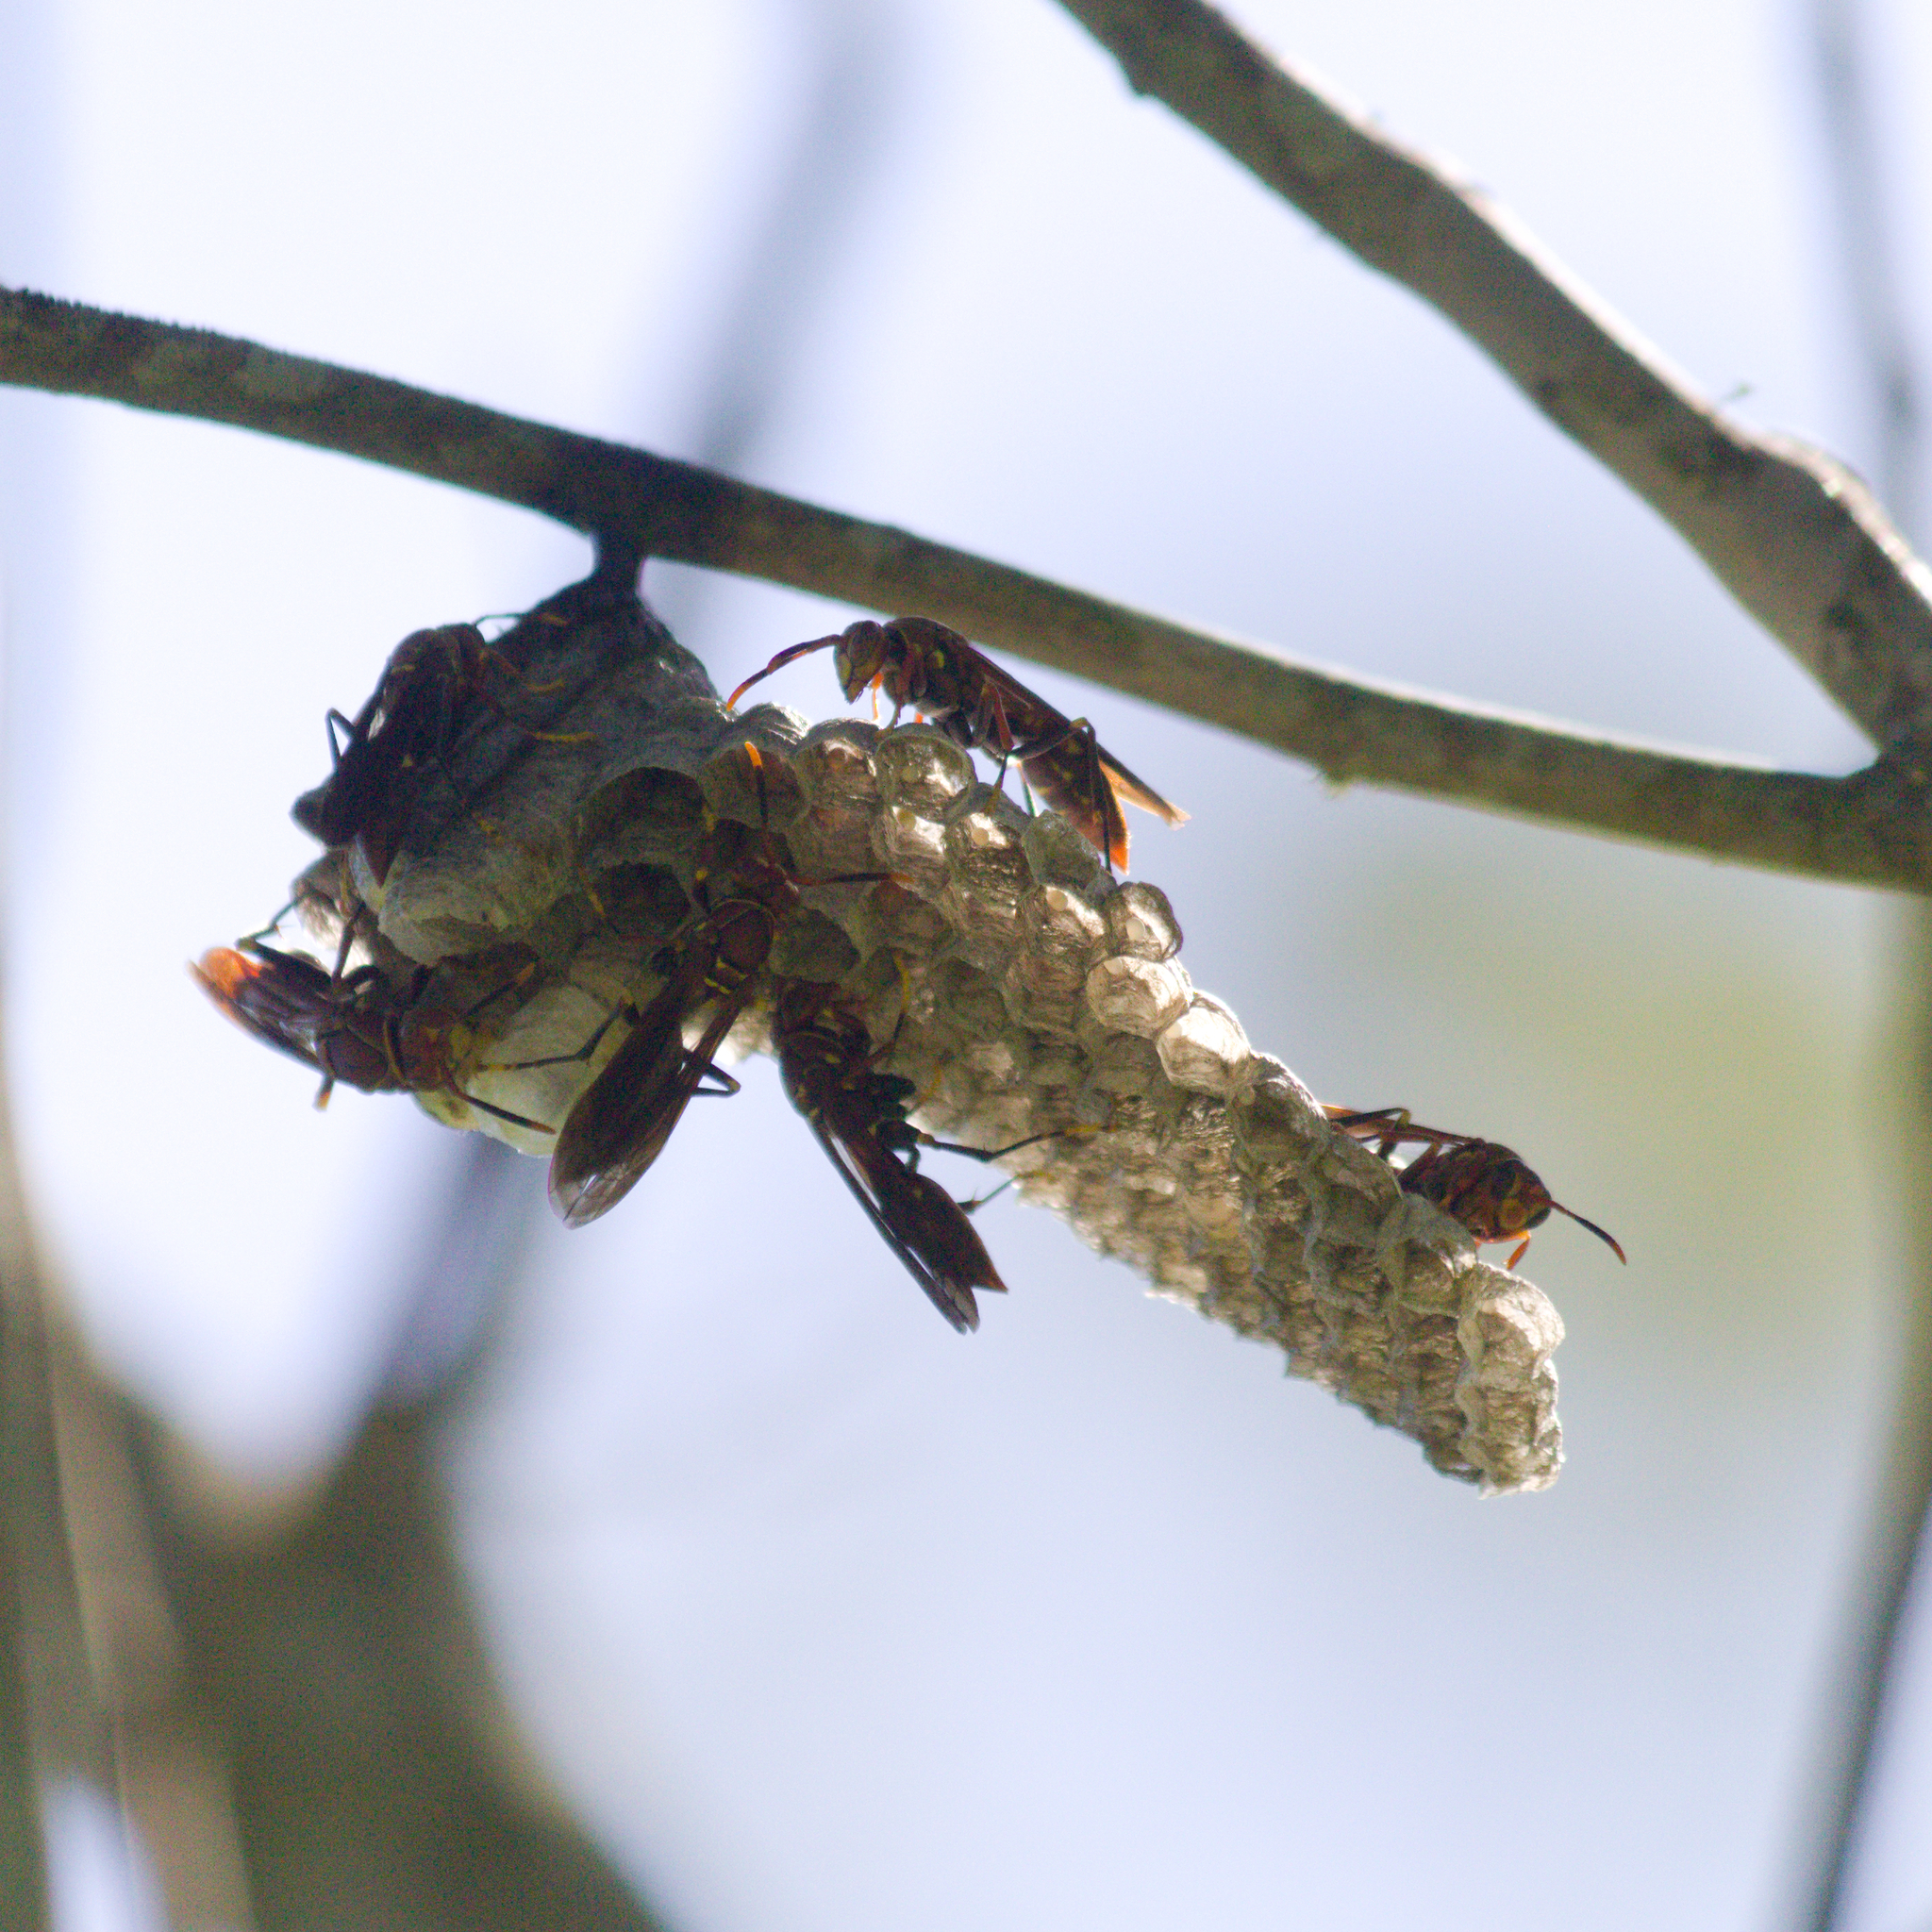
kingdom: Animalia
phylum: Arthropoda
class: Insecta
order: Hymenoptera
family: Eumenidae
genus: Polistes
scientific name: Polistes simillimus
